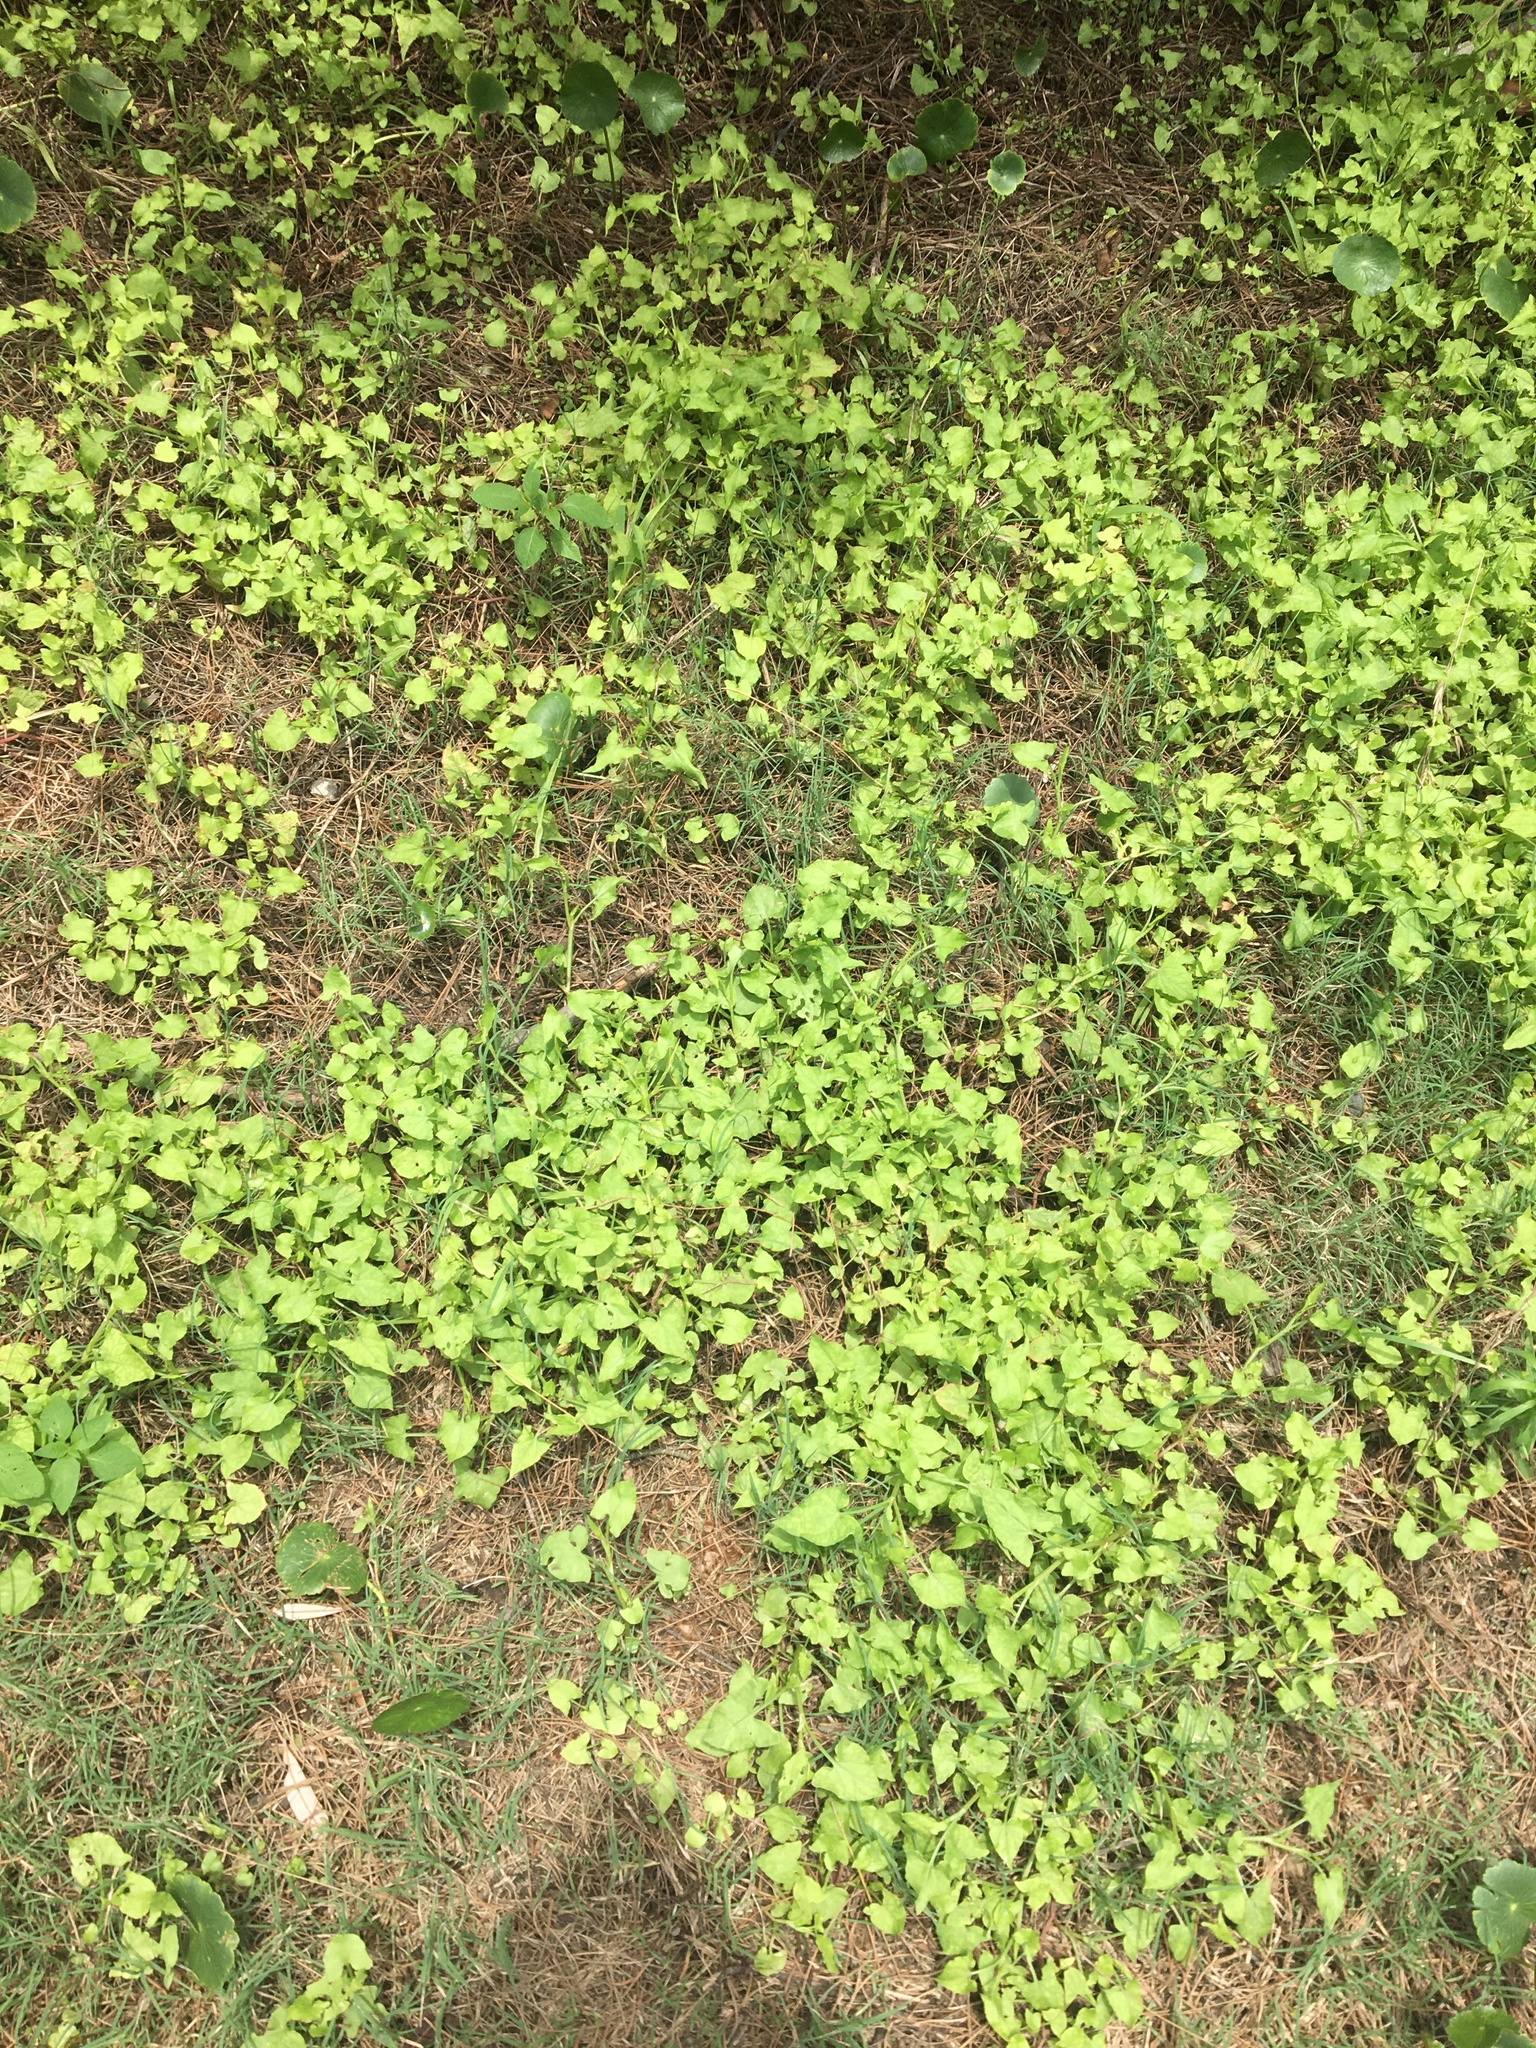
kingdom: Plantae
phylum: Tracheophyta
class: Magnoliopsida
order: Caryophyllales
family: Polygonaceae
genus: Rumex
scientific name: Rumex sagittatus
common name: Climbing dock
